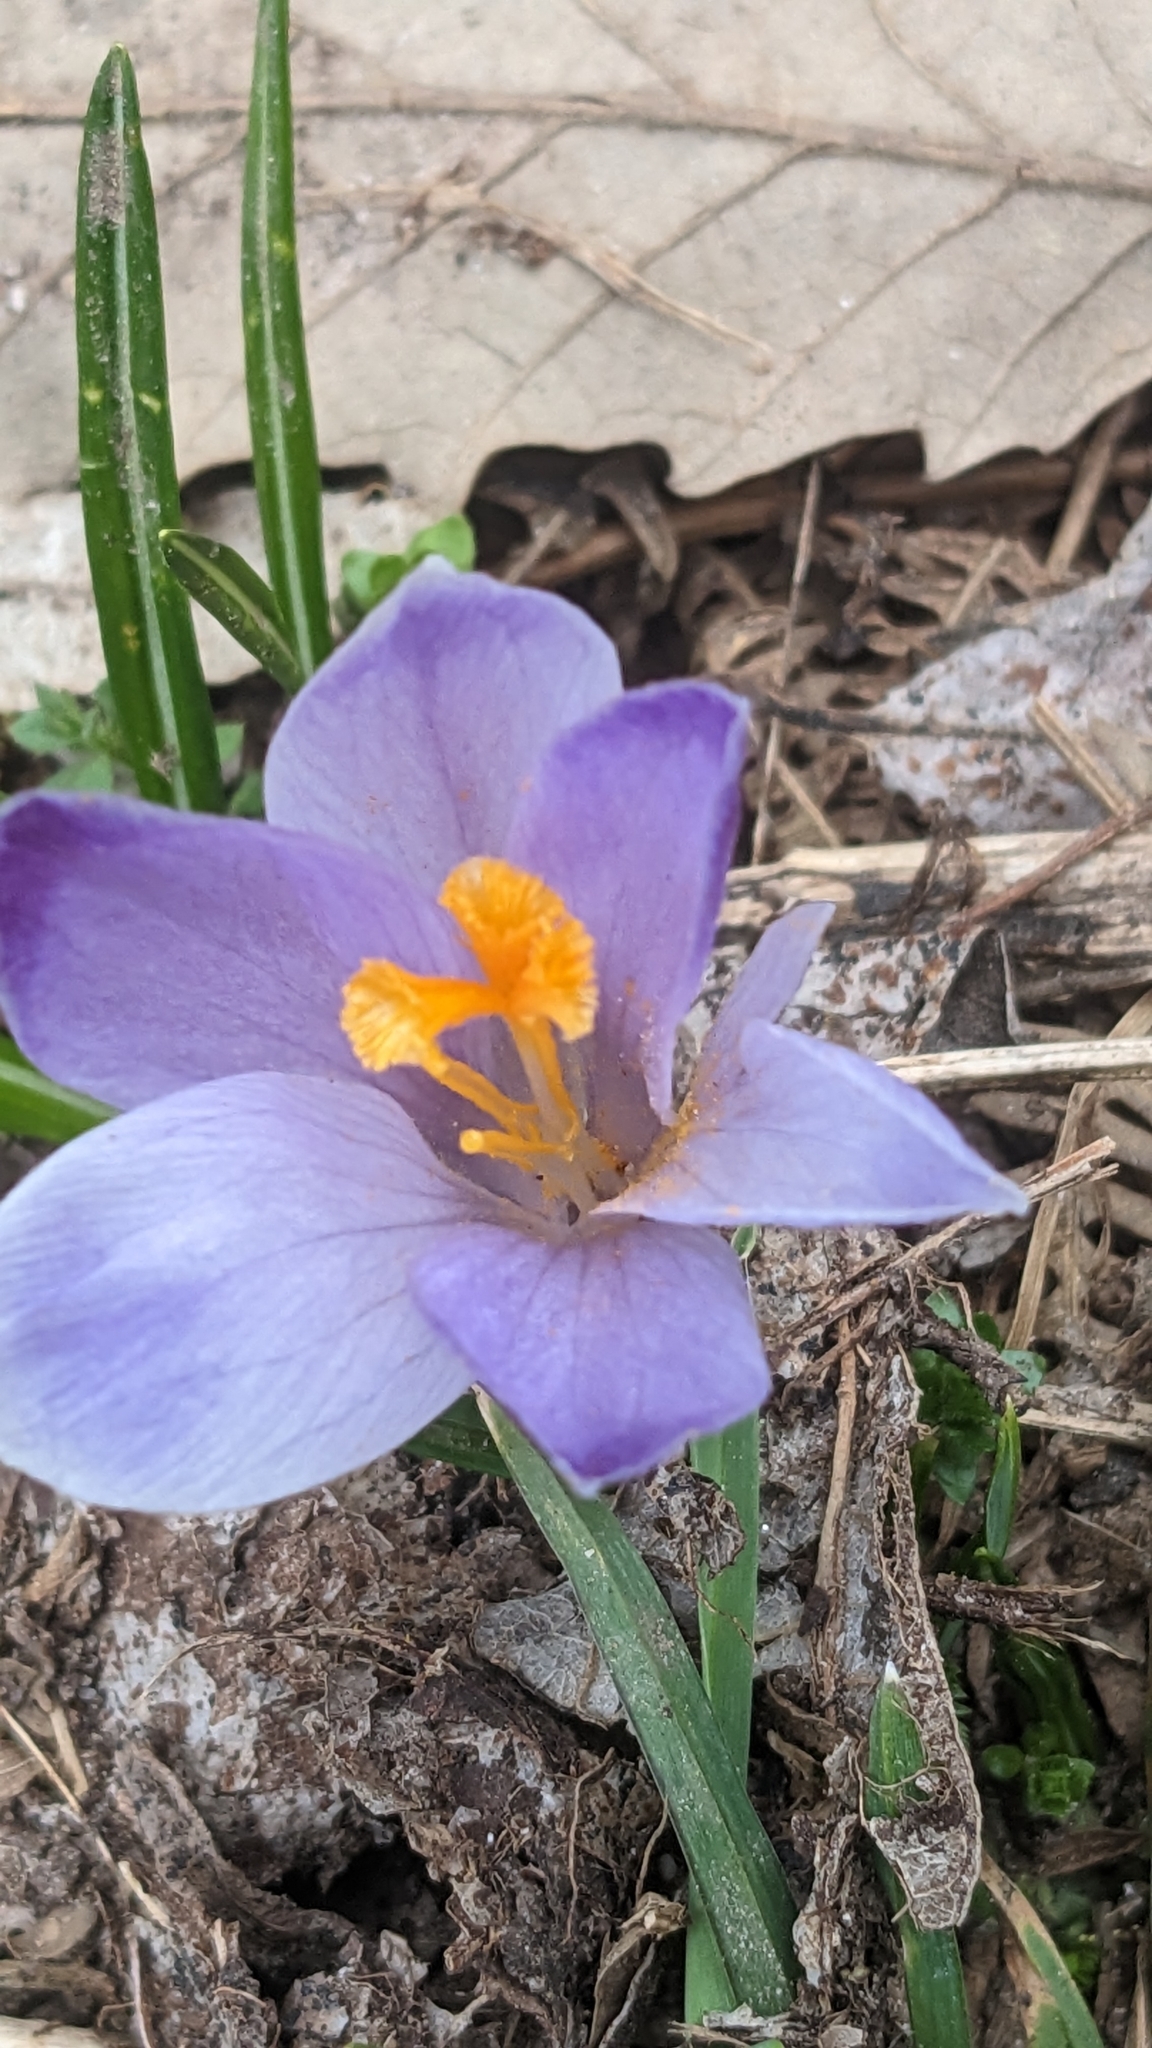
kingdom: Plantae
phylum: Tracheophyta
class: Liliopsida
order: Asparagales
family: Iridaceae
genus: Crocus
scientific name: Crocus heuffelianus
